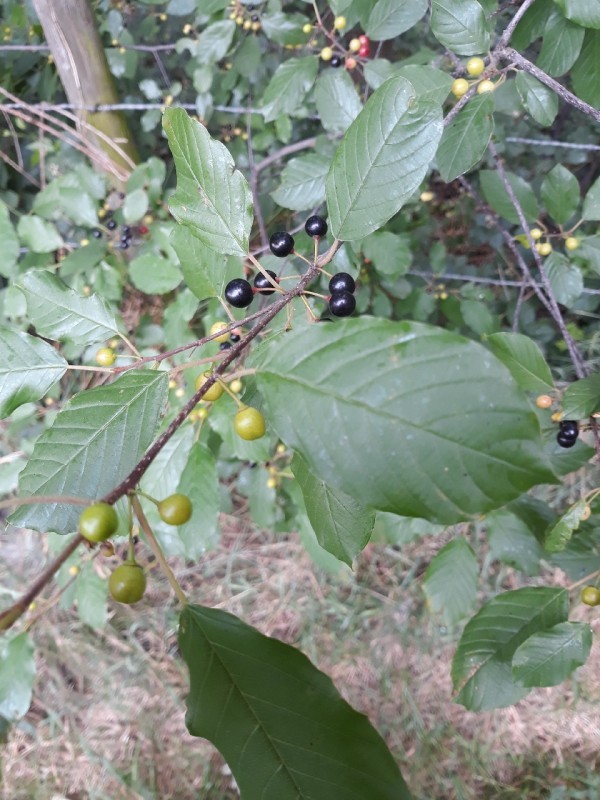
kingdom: Plantae
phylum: Tracheophyta
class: Magnoliopsida
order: Rosales
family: Rhamnaceae
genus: Frangula
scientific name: Frangula alnus
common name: Alder buckthorn
